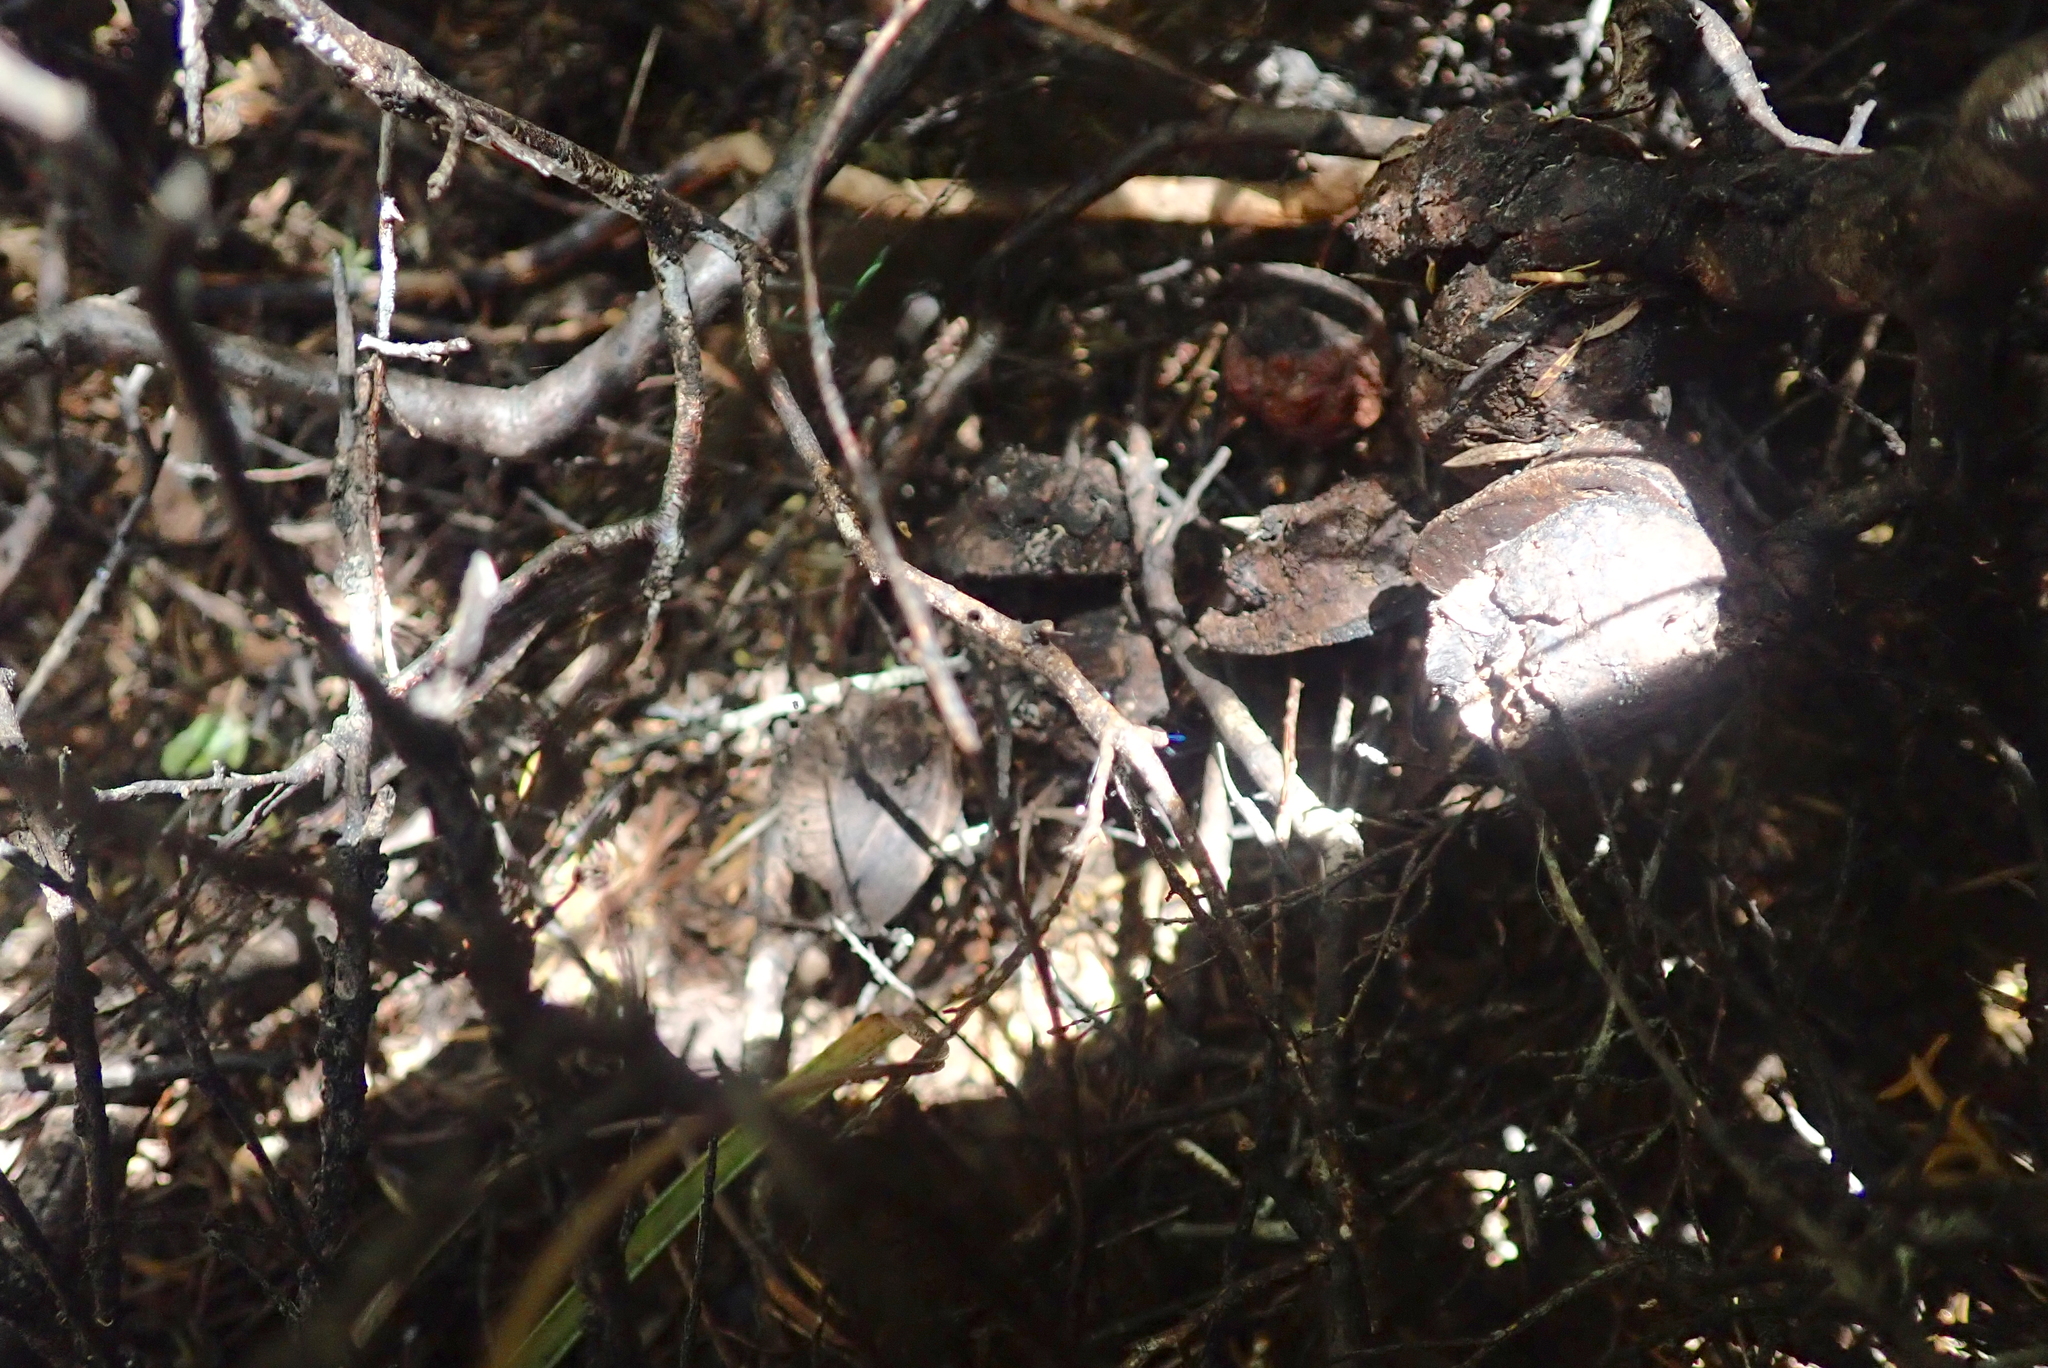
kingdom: Plantae
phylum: Tracheophyta
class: Magnoliopsida
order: Proteales
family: Proteaceae
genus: Hakea
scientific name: Hakea sericea
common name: Needle bush
